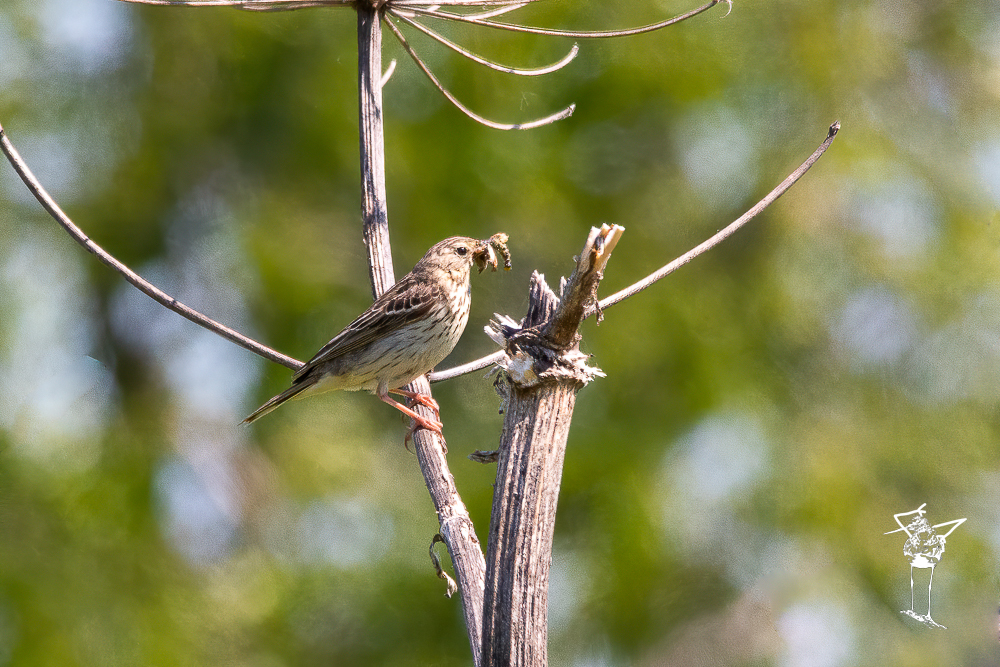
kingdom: Animalia
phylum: Chordata
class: Aves
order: Passeriformes
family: Motacillidae
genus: Anthus
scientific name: Anthus trivialis
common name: Tree pipit
